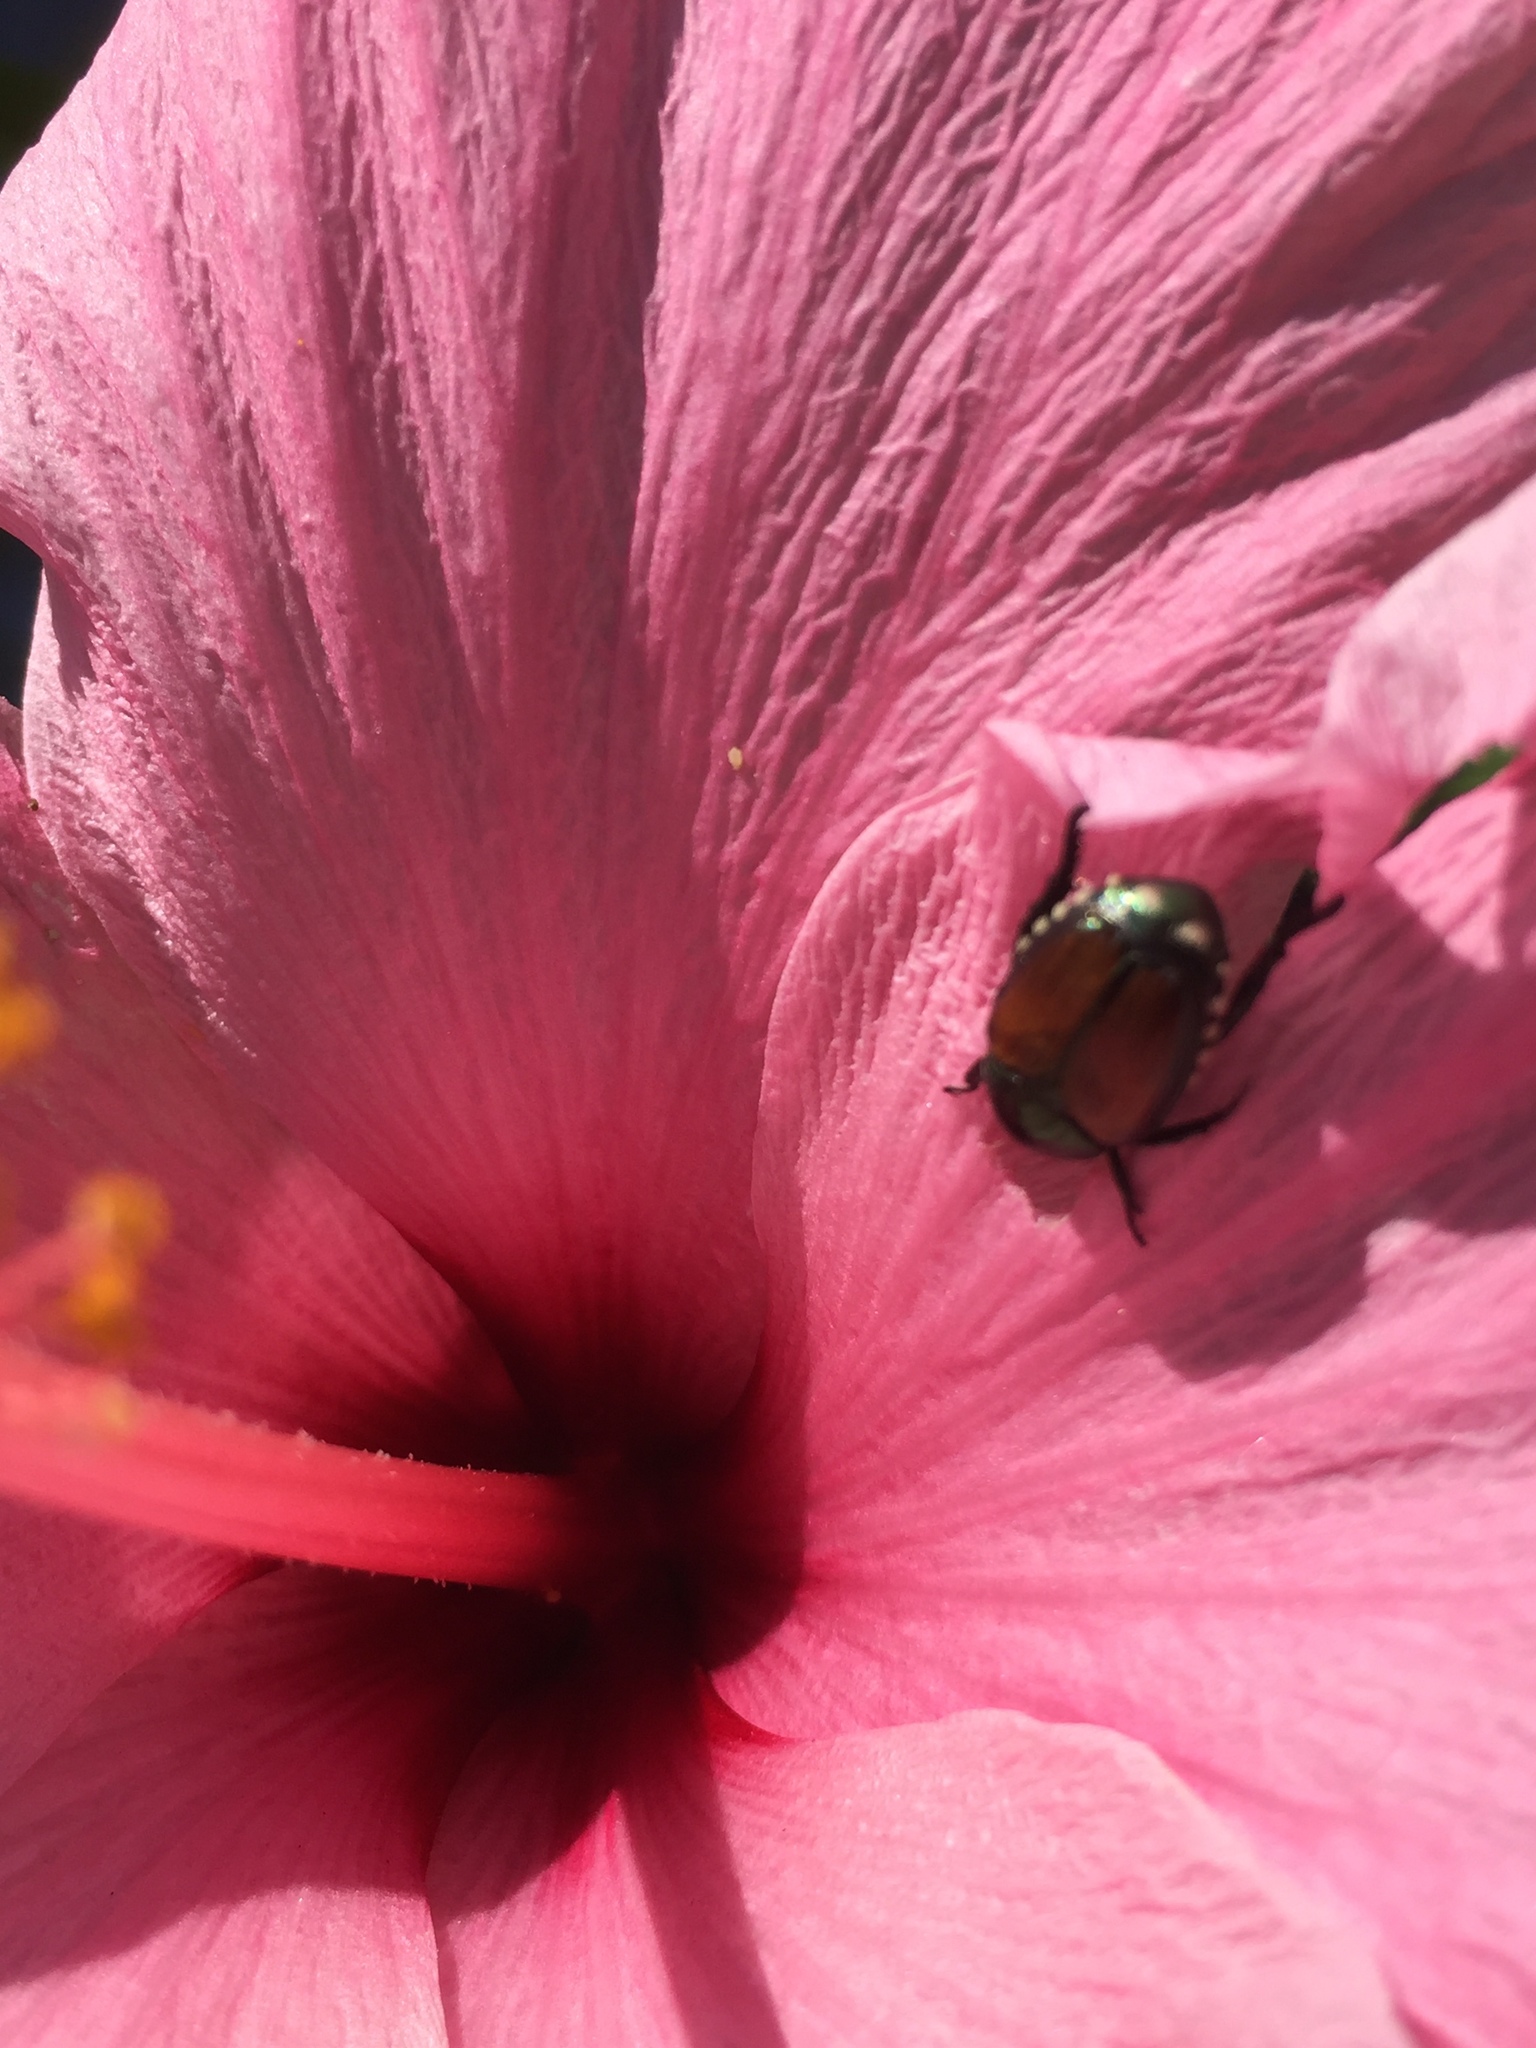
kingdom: Animalia
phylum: Arthropoda
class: Insecta
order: Coleoptera
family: Scarabaeidae
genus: Popillia
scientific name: Popillia japonica
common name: Japanese beetle
